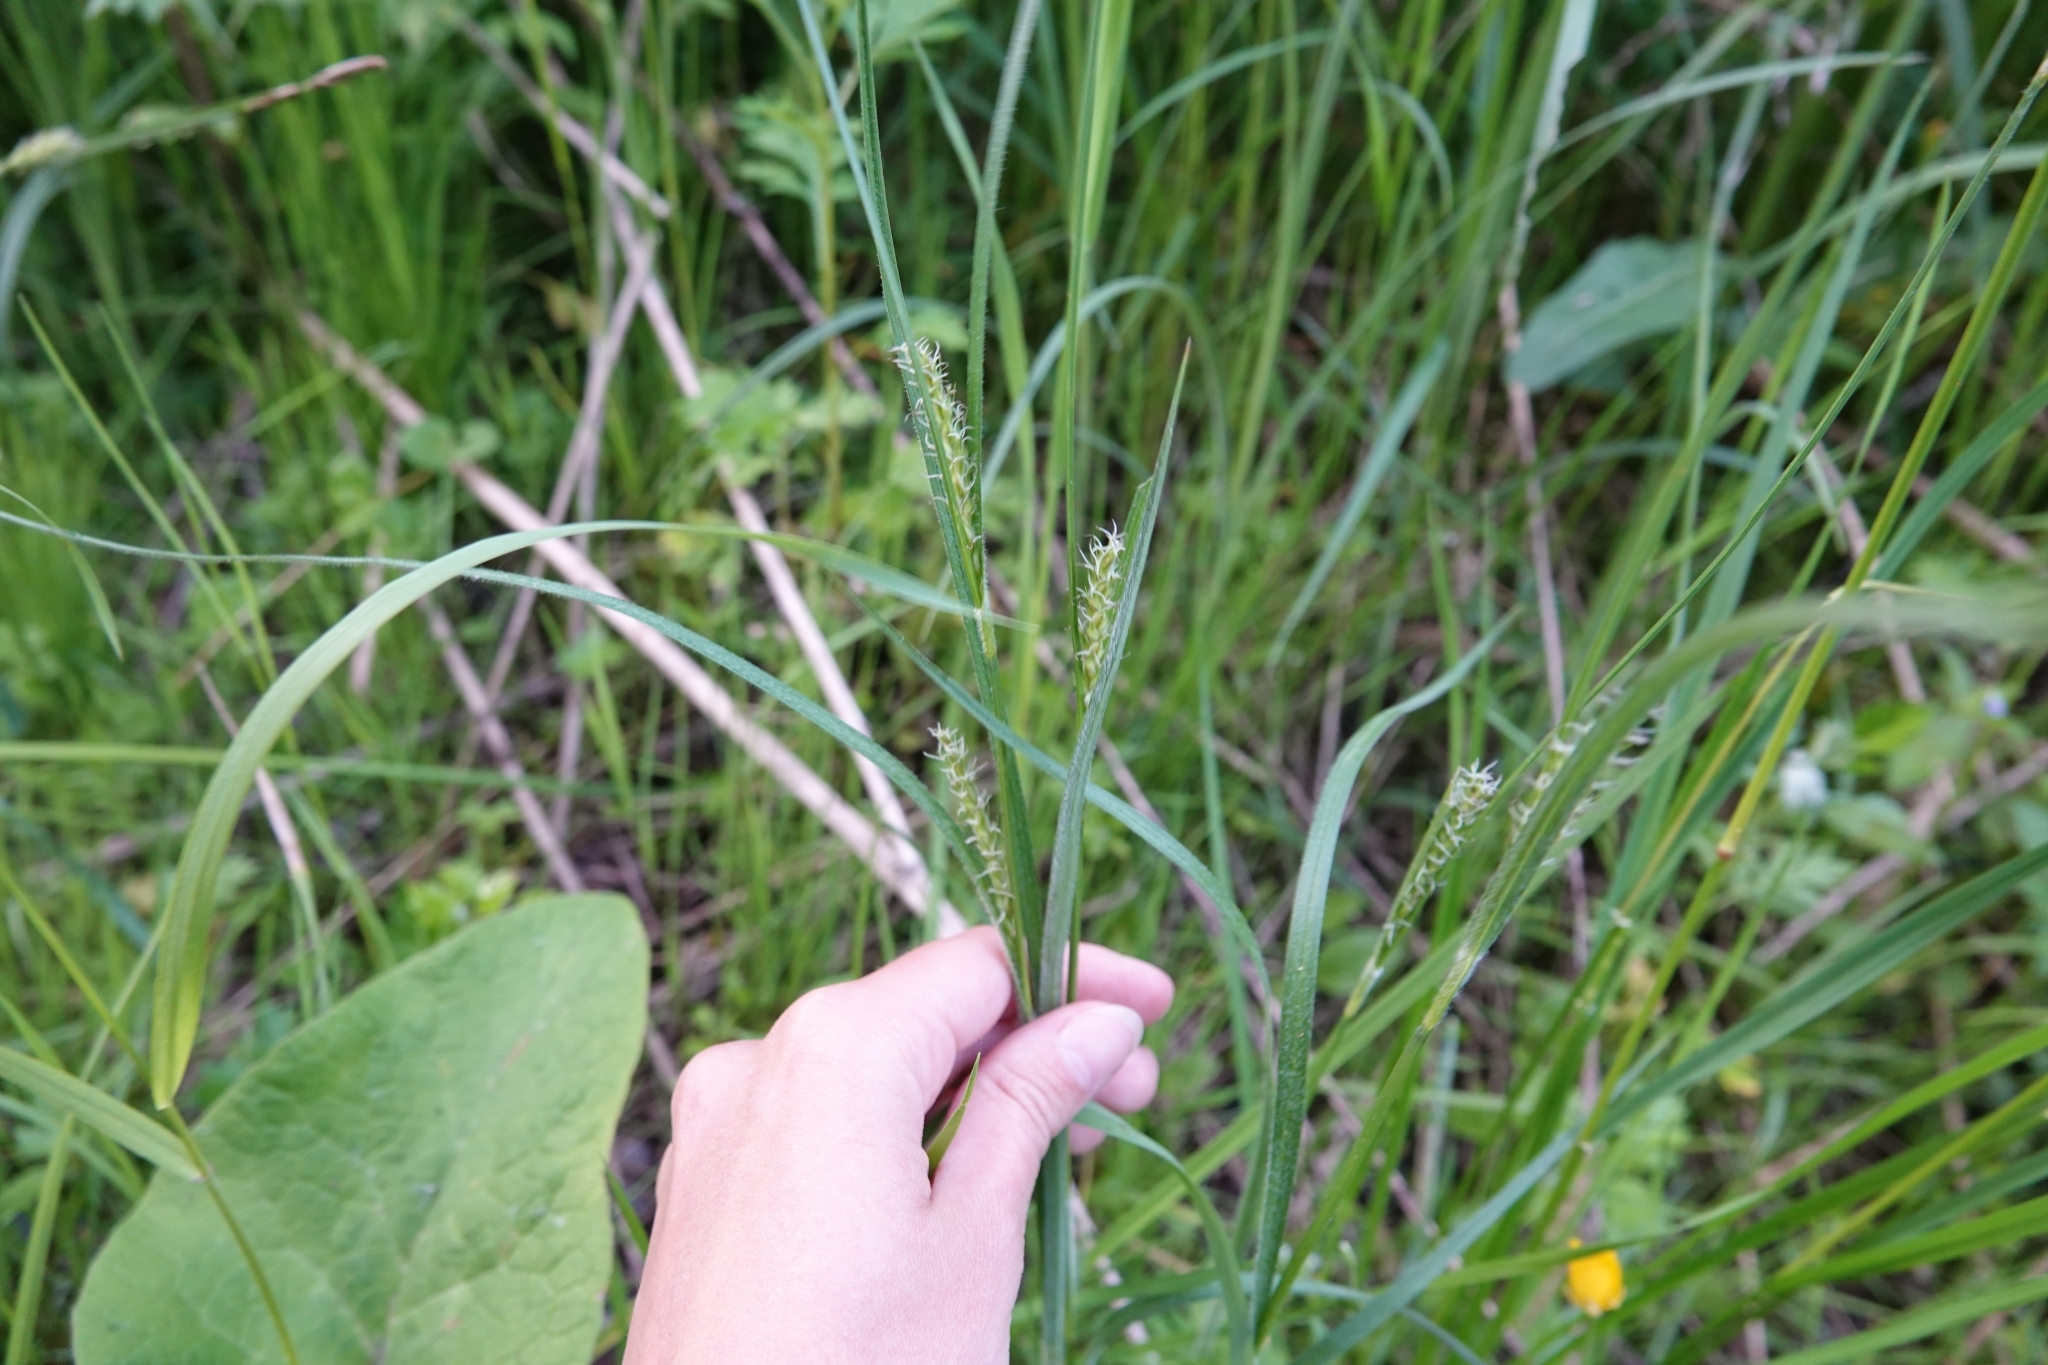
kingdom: Plantae
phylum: Tracheophyta
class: Liliopsida
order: Poales
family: Cyperaceae
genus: Carex
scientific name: Carex hirta
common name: Hairy sedge
